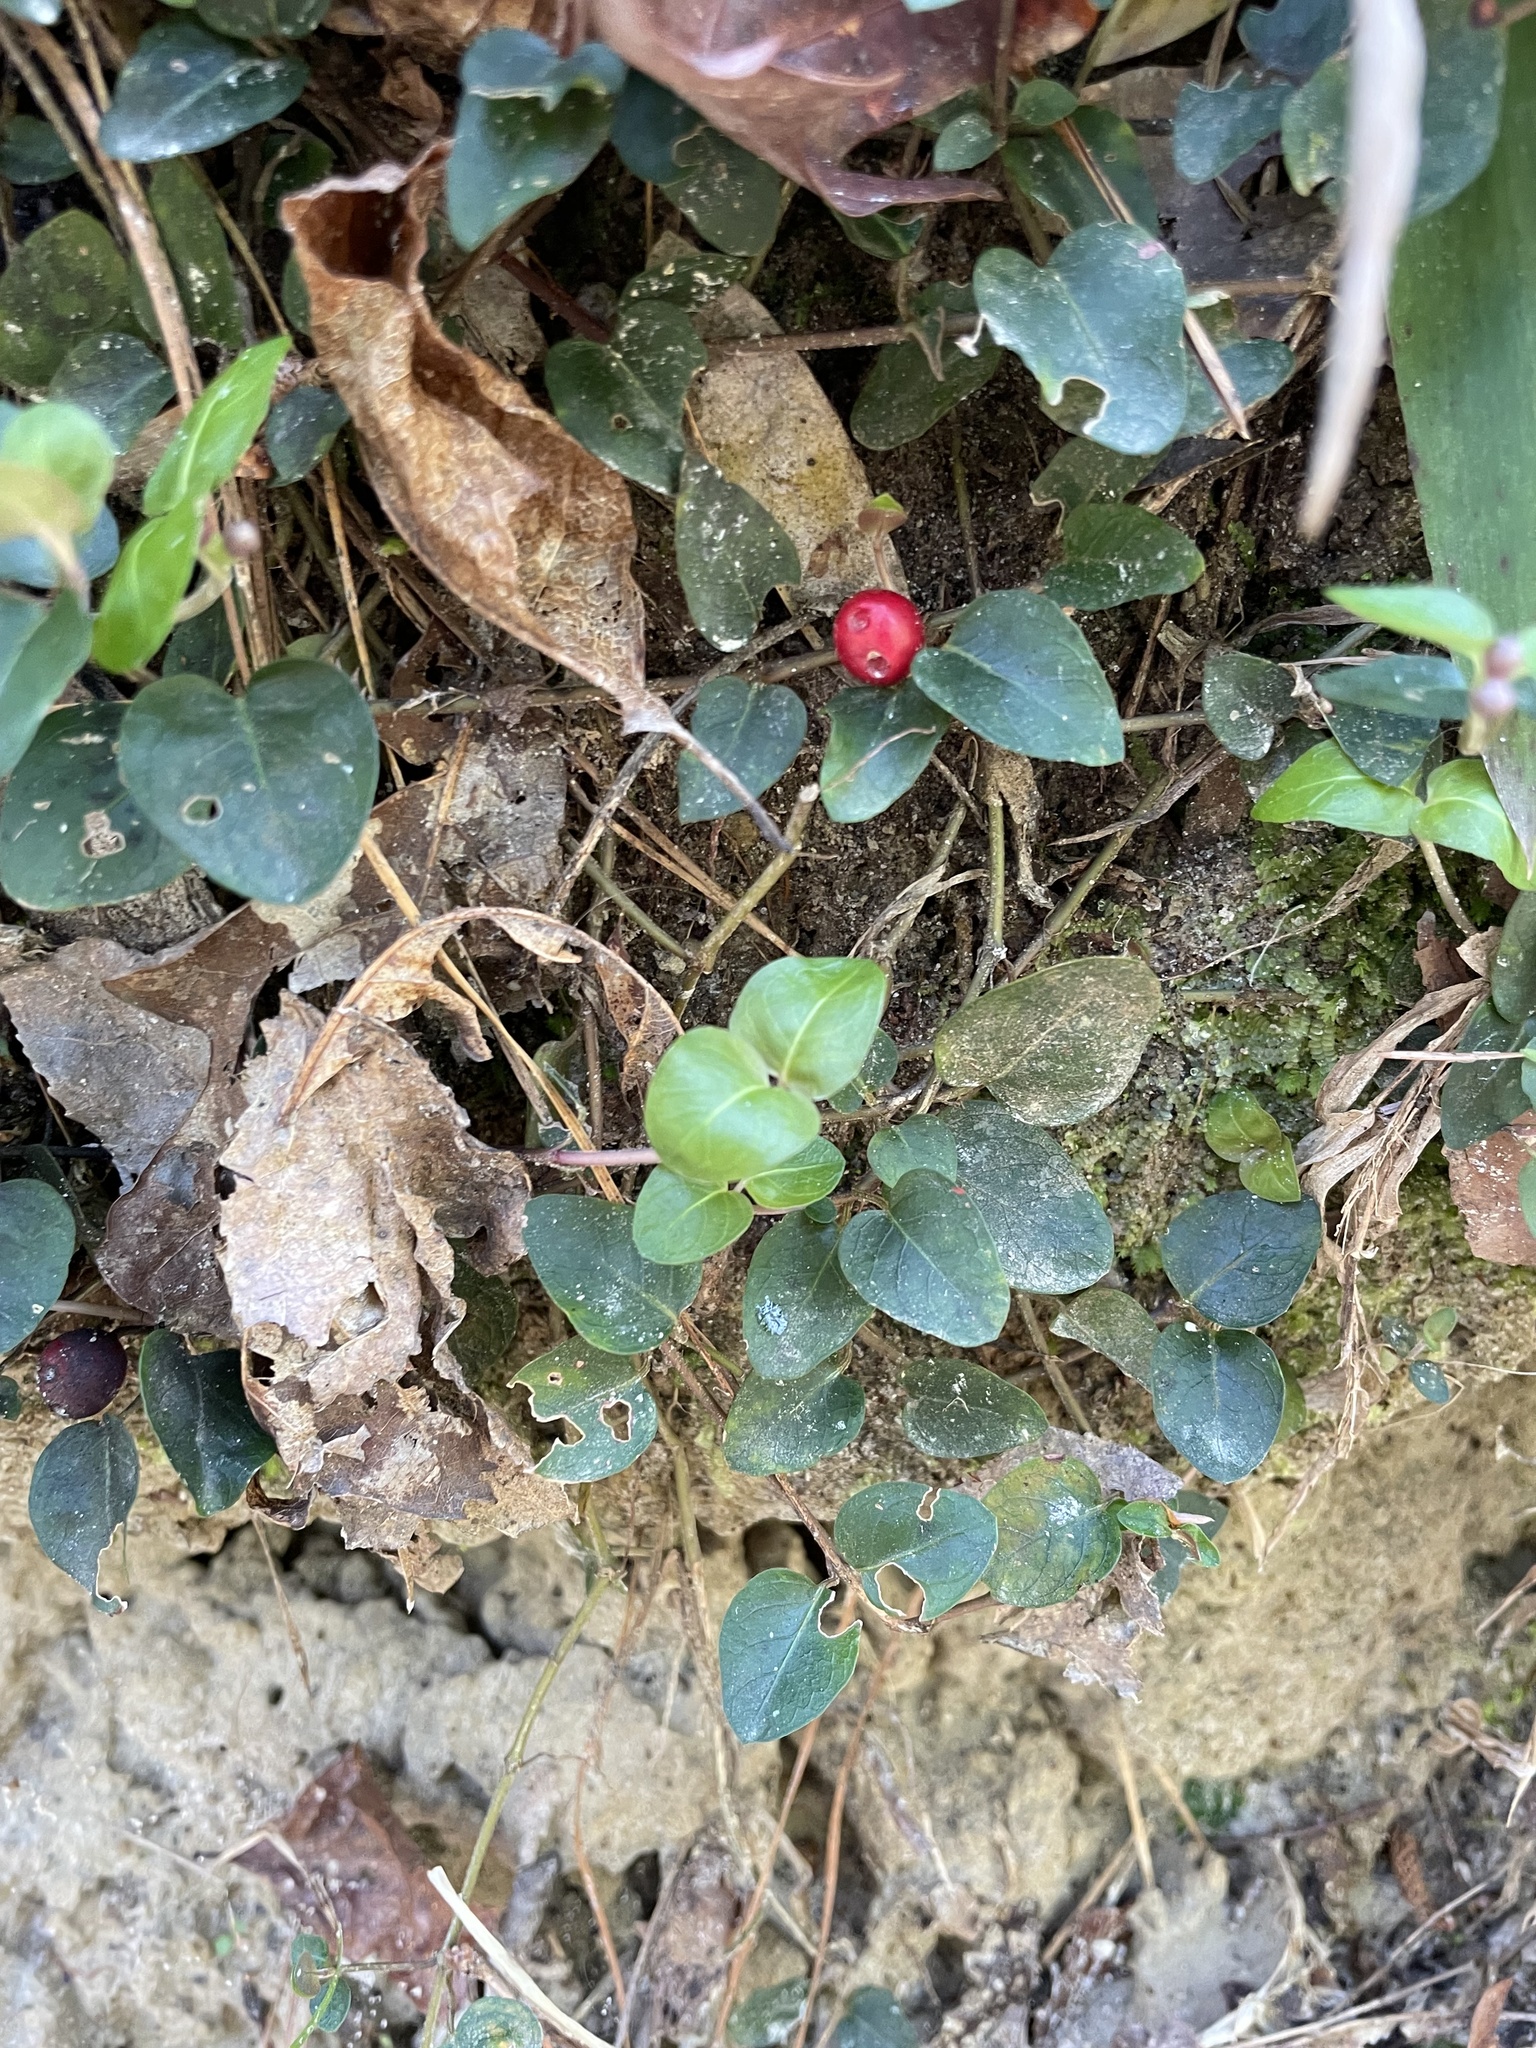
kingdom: Plantae
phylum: Tracheophyta
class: Magnoliopsida
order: Gentianales
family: Rubiaceae
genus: Mitchella
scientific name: Mitchella repens
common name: Partridge-berry
